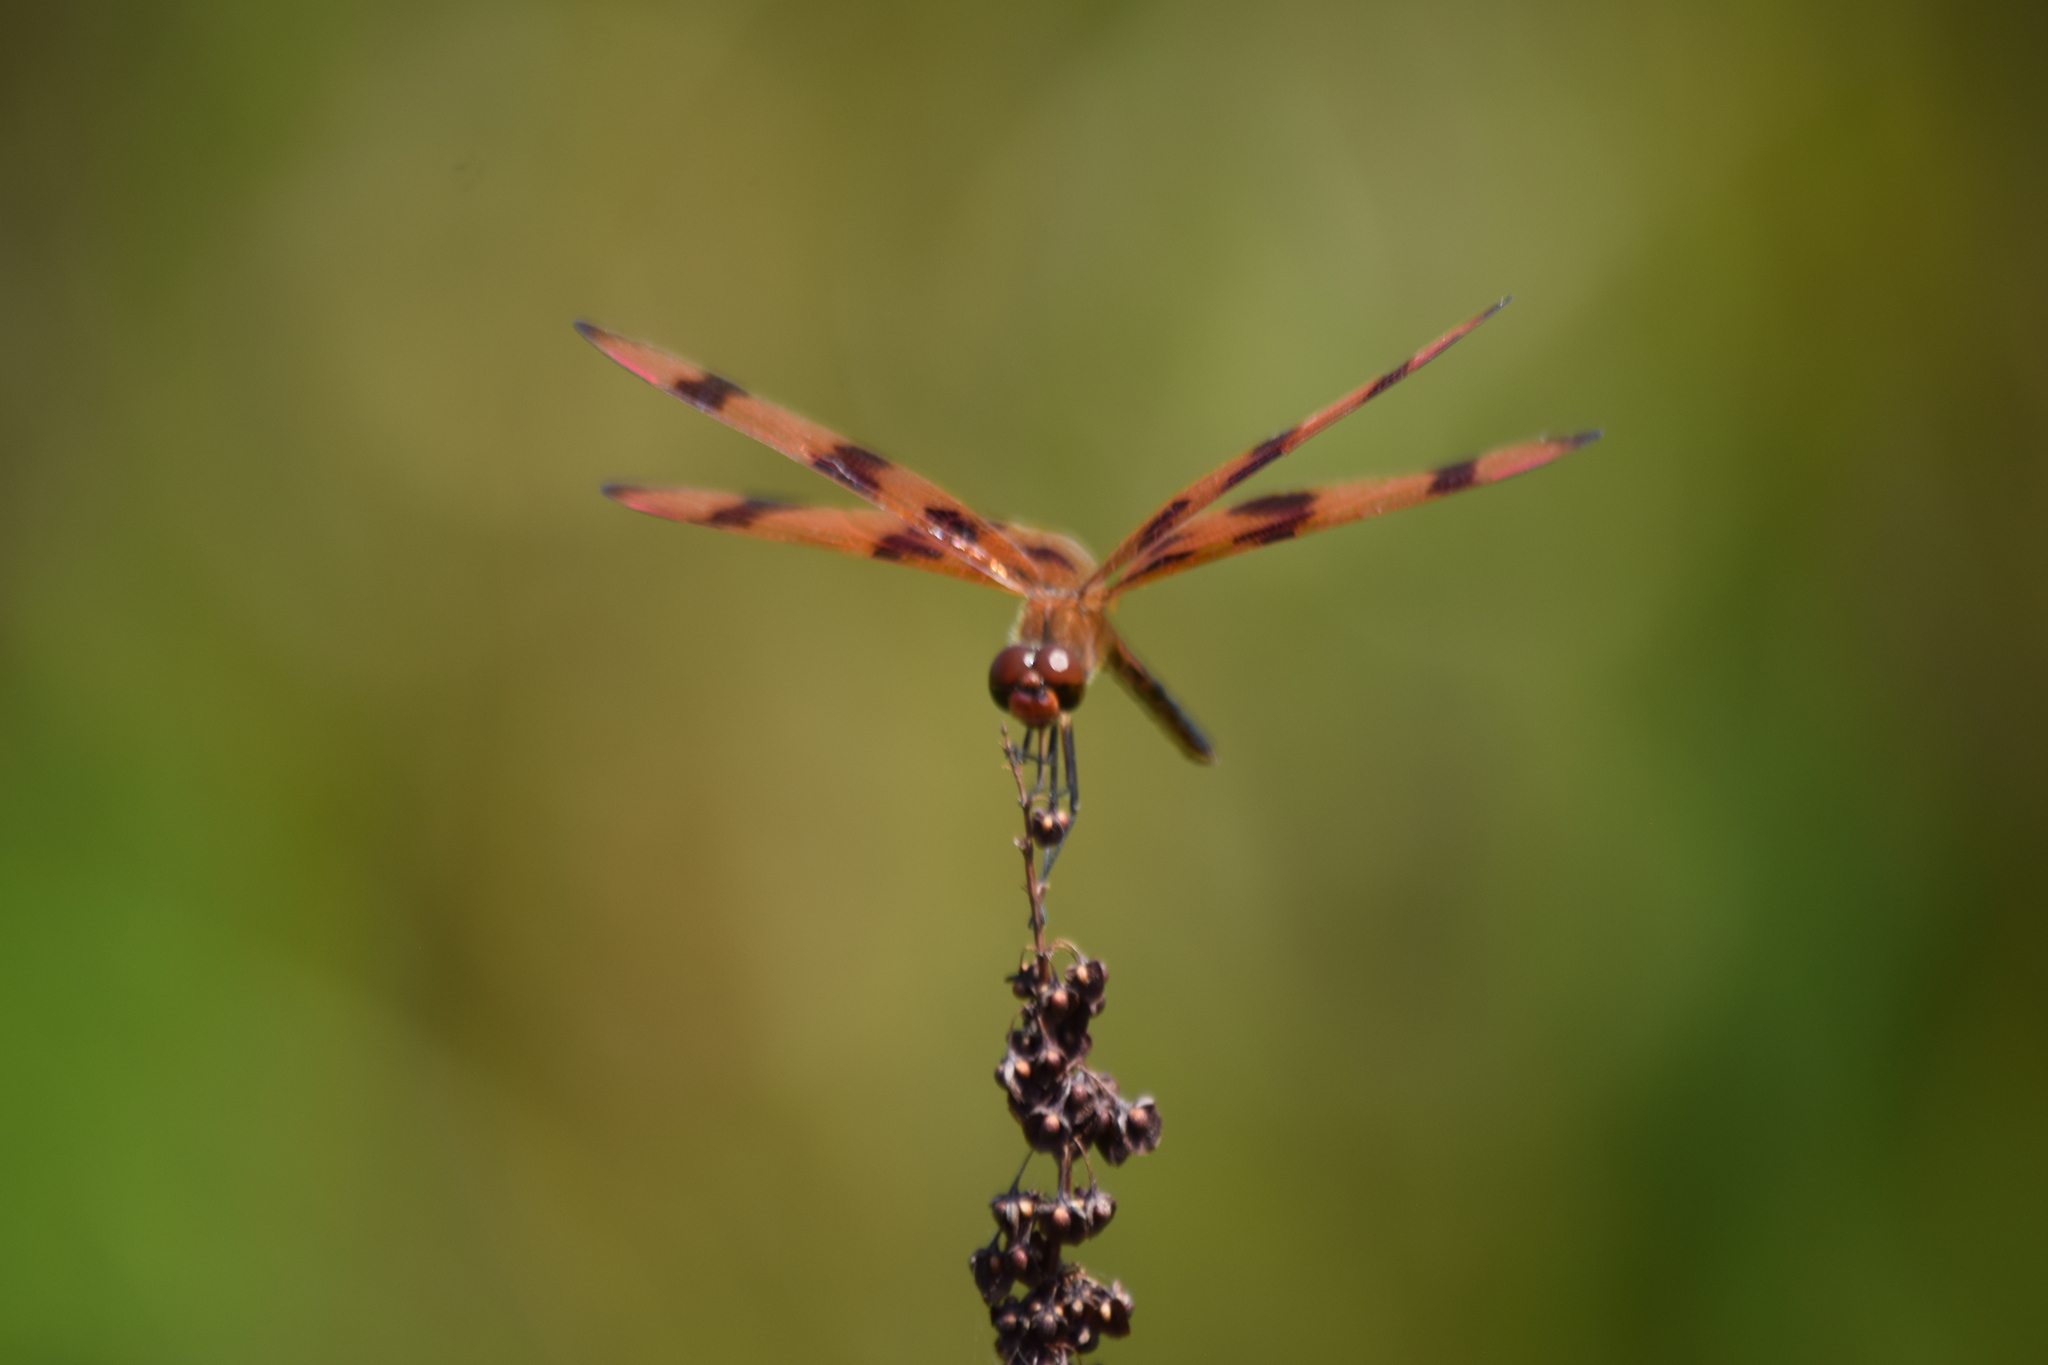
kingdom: Animalia
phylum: Arthropoda
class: Insecta
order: Odonata
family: Libellulidae
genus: Celithemis
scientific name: Celithemis eponina
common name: Halloween pennant
